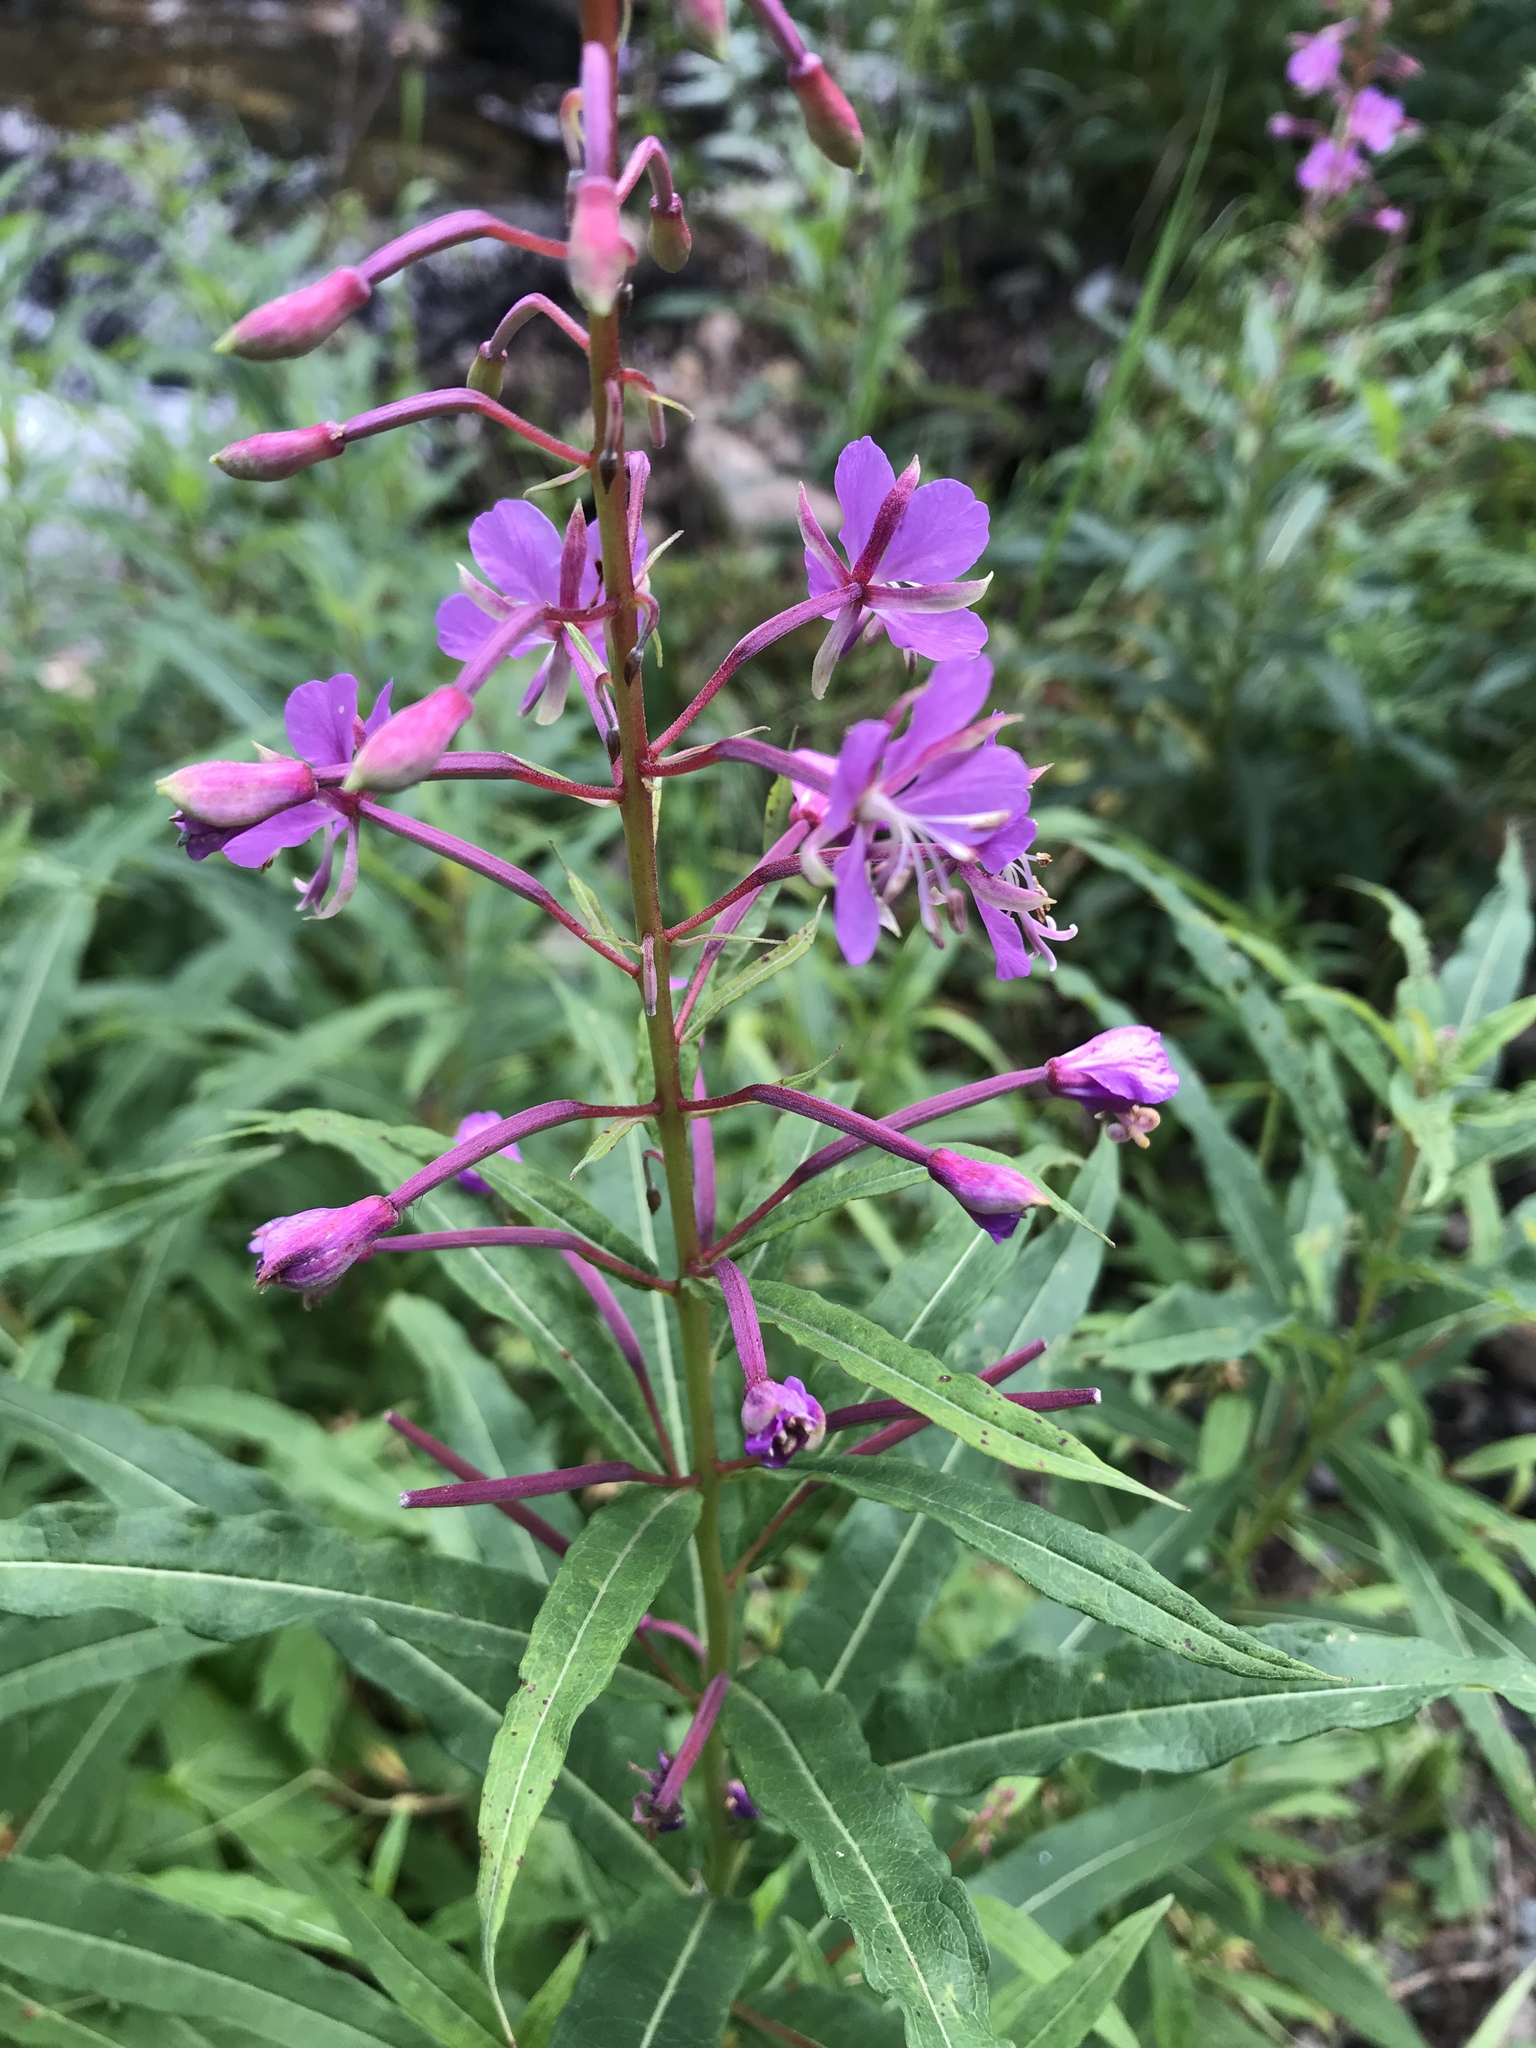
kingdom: Plantae
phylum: Tracheophyta
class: Magnoliopsida
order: Myrtales
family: Onagraceae
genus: Chamaenerion
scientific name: Chamaenerion angustifolium
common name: Fireweed
